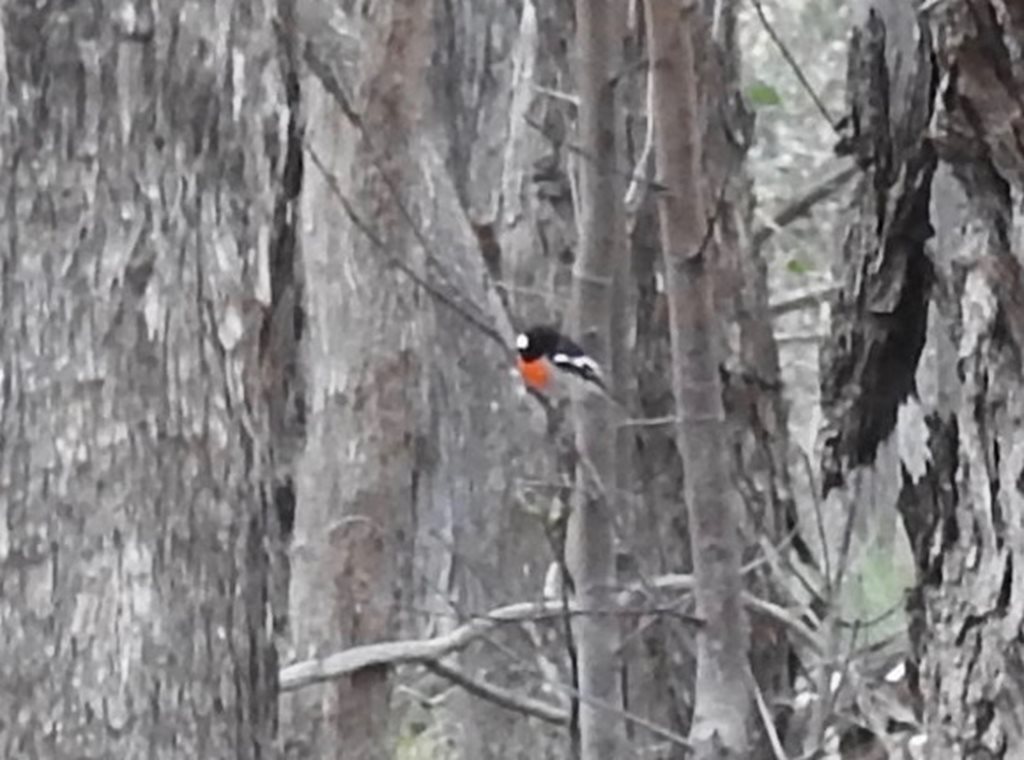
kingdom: Animalia
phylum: Chordata
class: Aves
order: Passeriformes
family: Petroicidae
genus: Petroica
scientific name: Petroica boodang
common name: Scarlet robin
